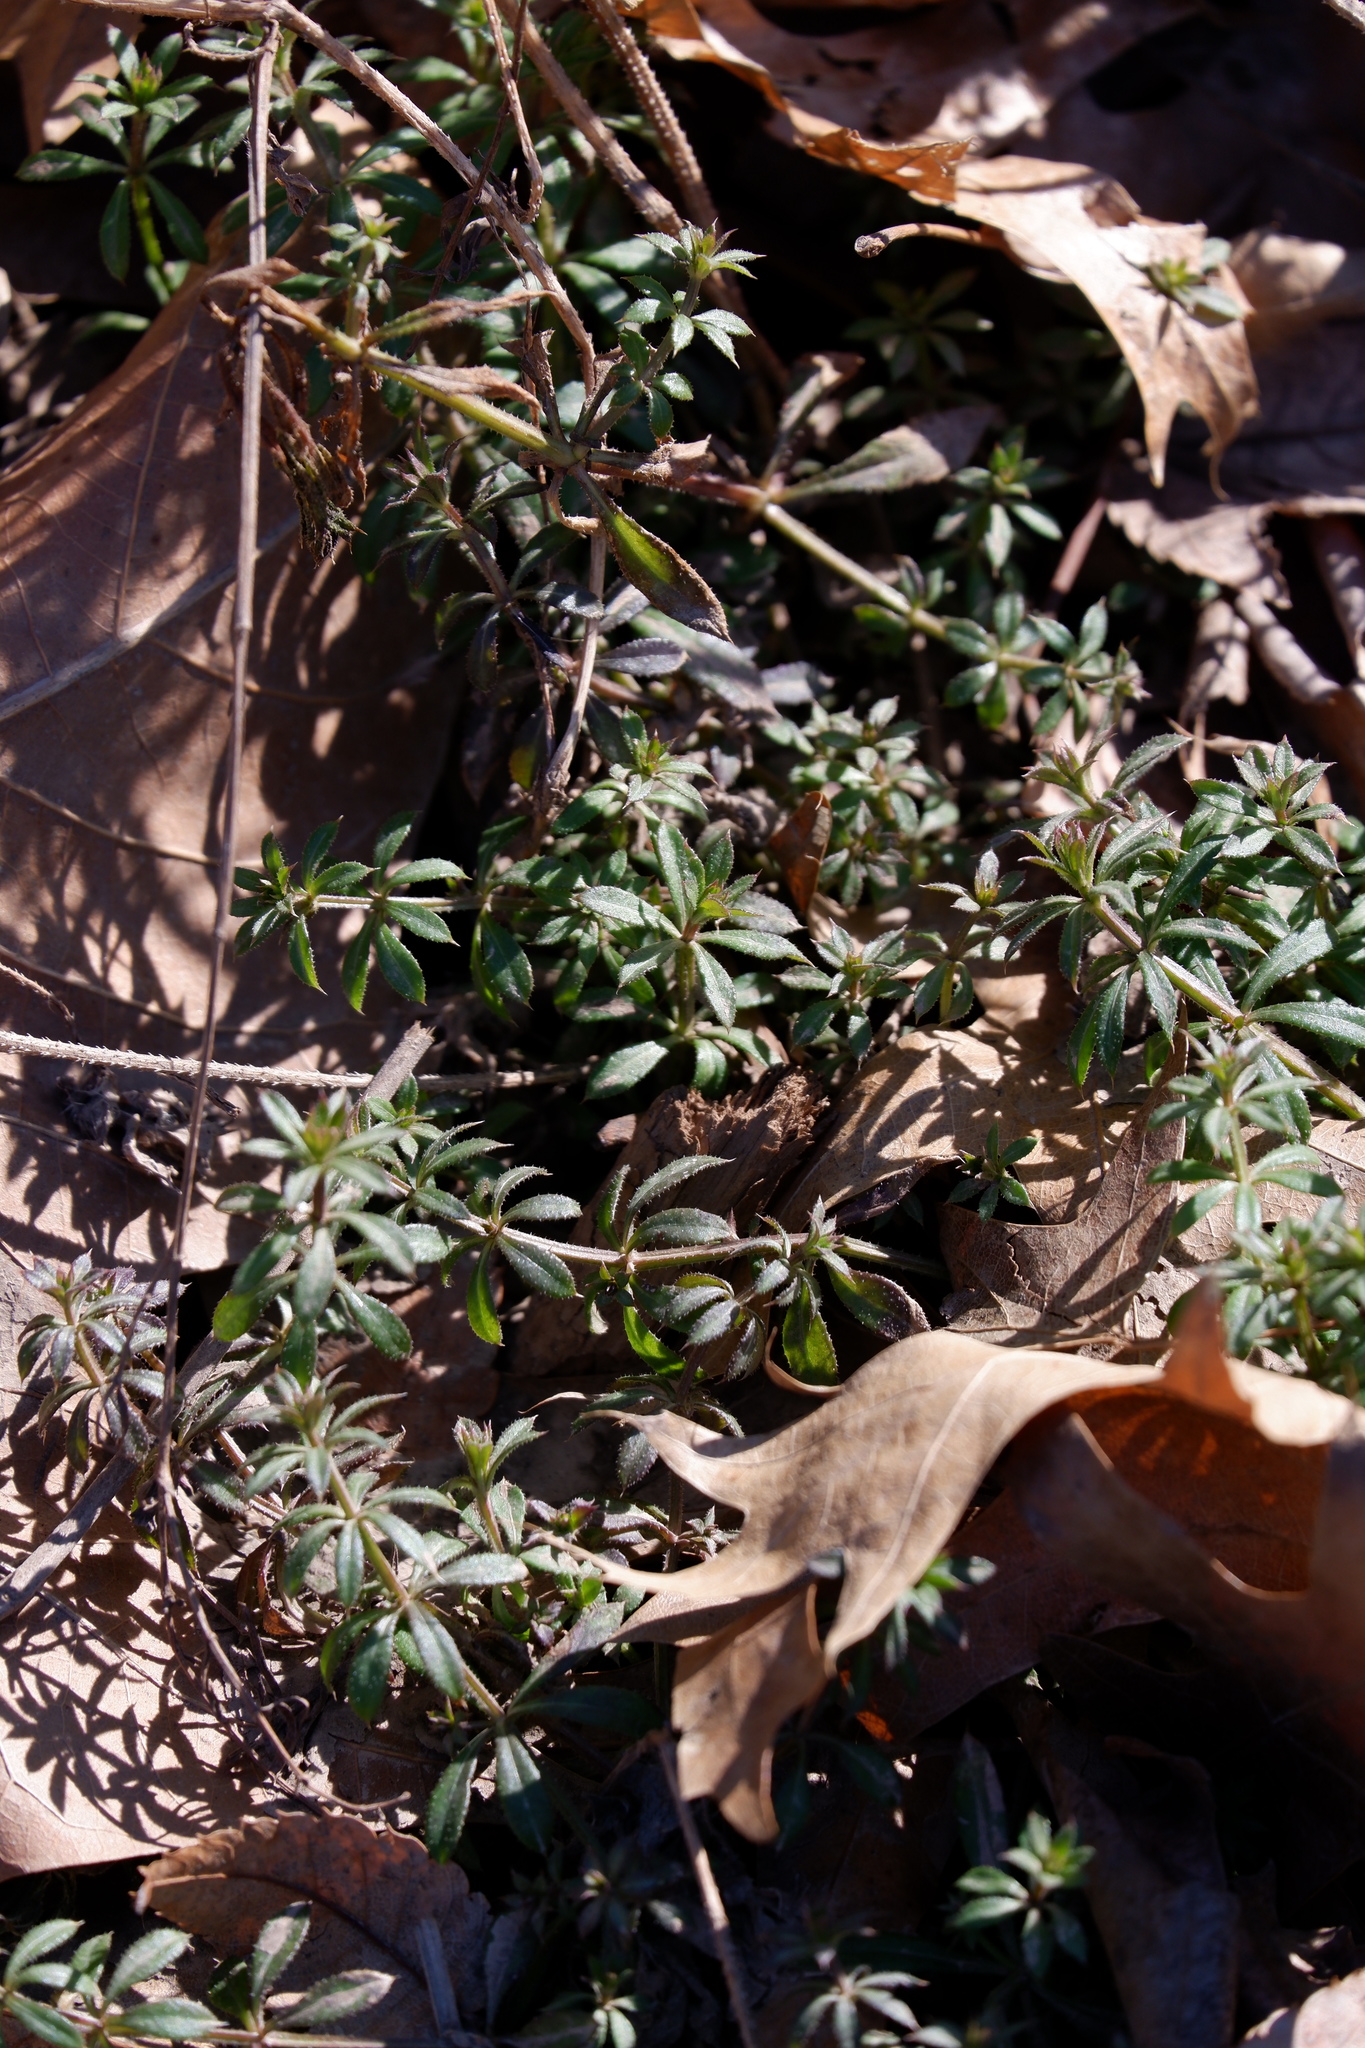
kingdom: Plantae
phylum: Tracheophyta
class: Magnoliopsida
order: Gentianales
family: Rubiaceae
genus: Galium
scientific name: Galium aparine
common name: Cleavers
